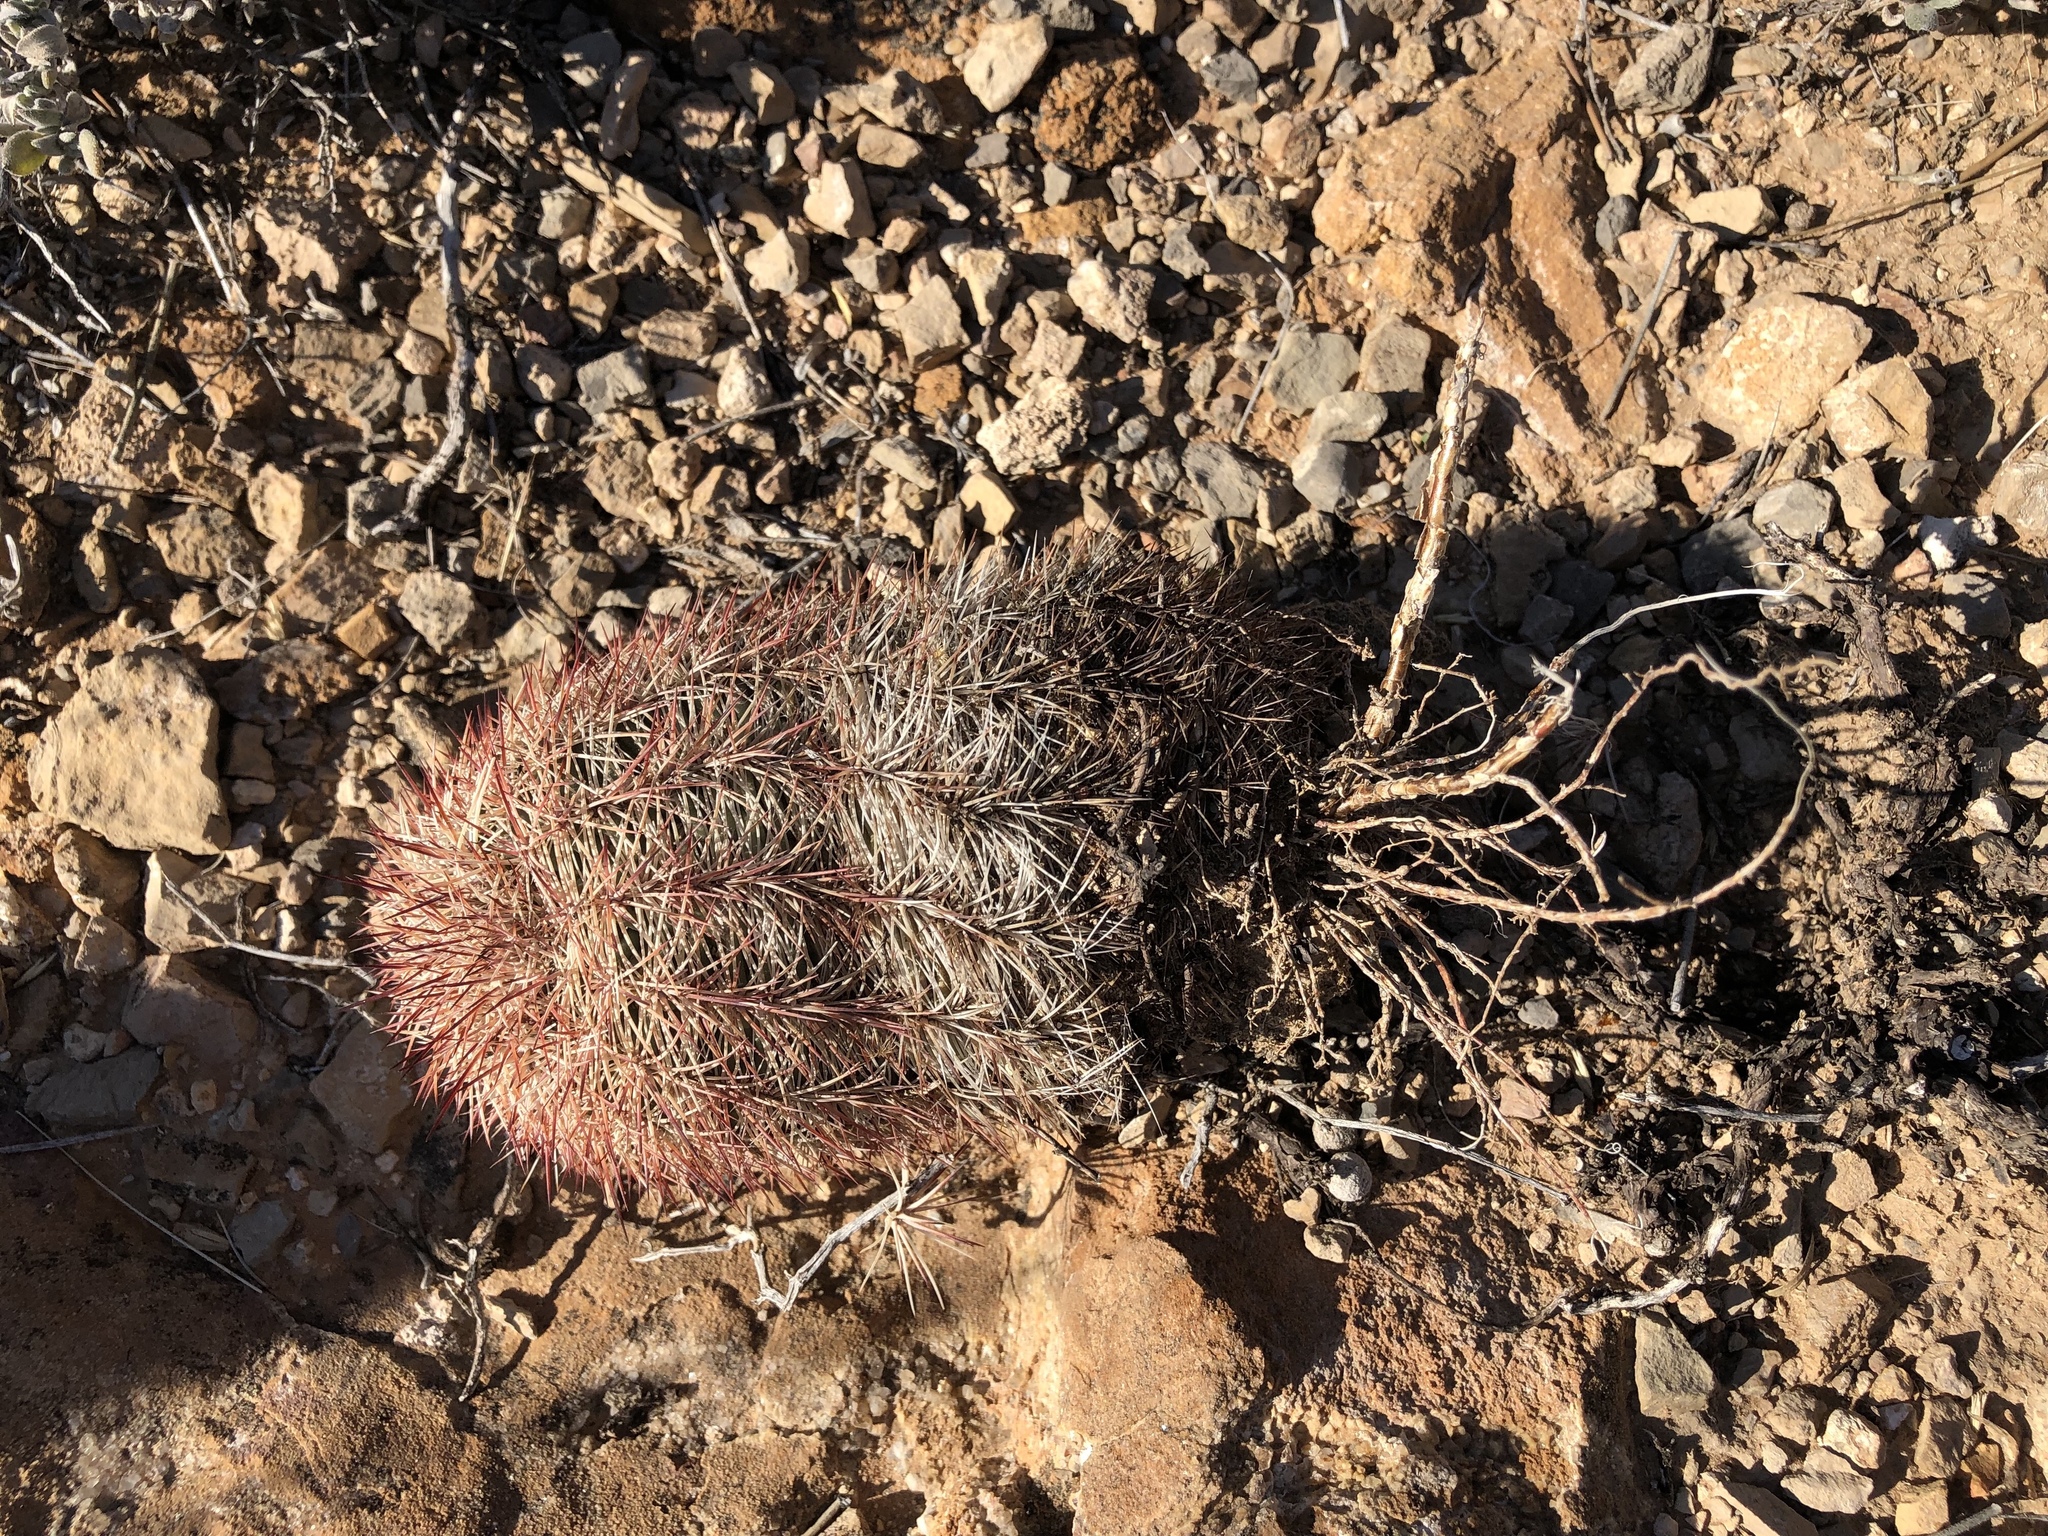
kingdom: Plantae
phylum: Tracheophyta
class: Magnoliopsida
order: Caryophyllales
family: Cactaceae
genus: Echinocereus
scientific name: Echinocereus dasyacanthus
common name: Spiny hedgehog cactus
